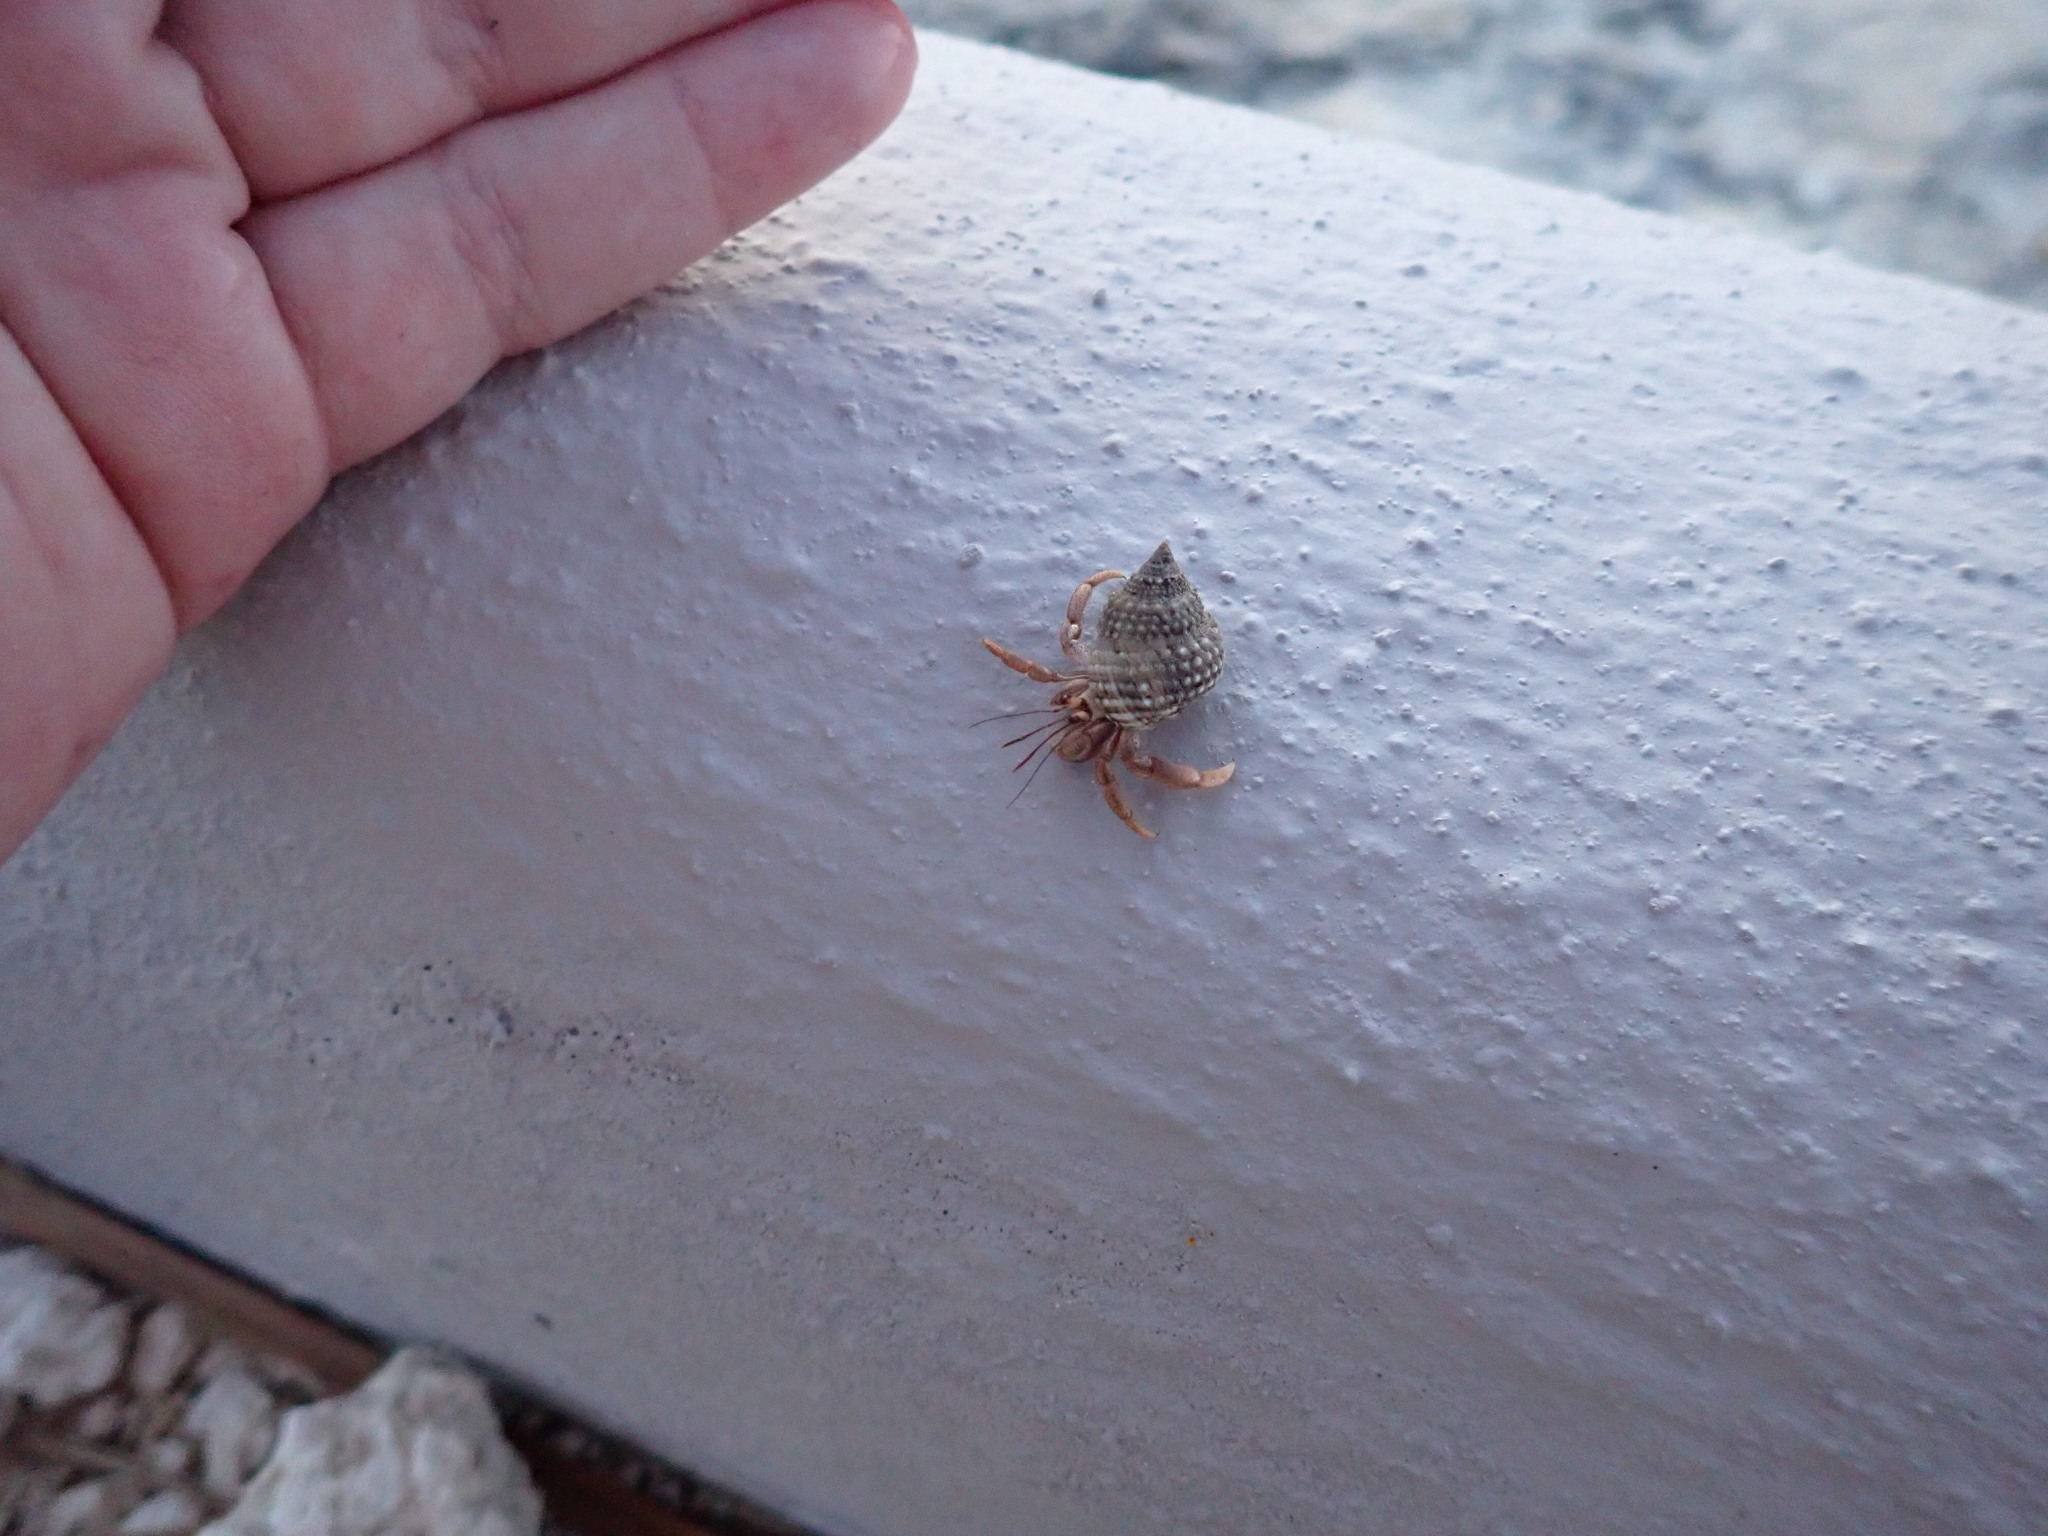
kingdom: Animalia
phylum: Arthropoda
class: Malacostraca
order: Decapoda
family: Coenobitidae
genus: Coenobita
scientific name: Coenobita clypeatus
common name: Caribbean hermit crab
